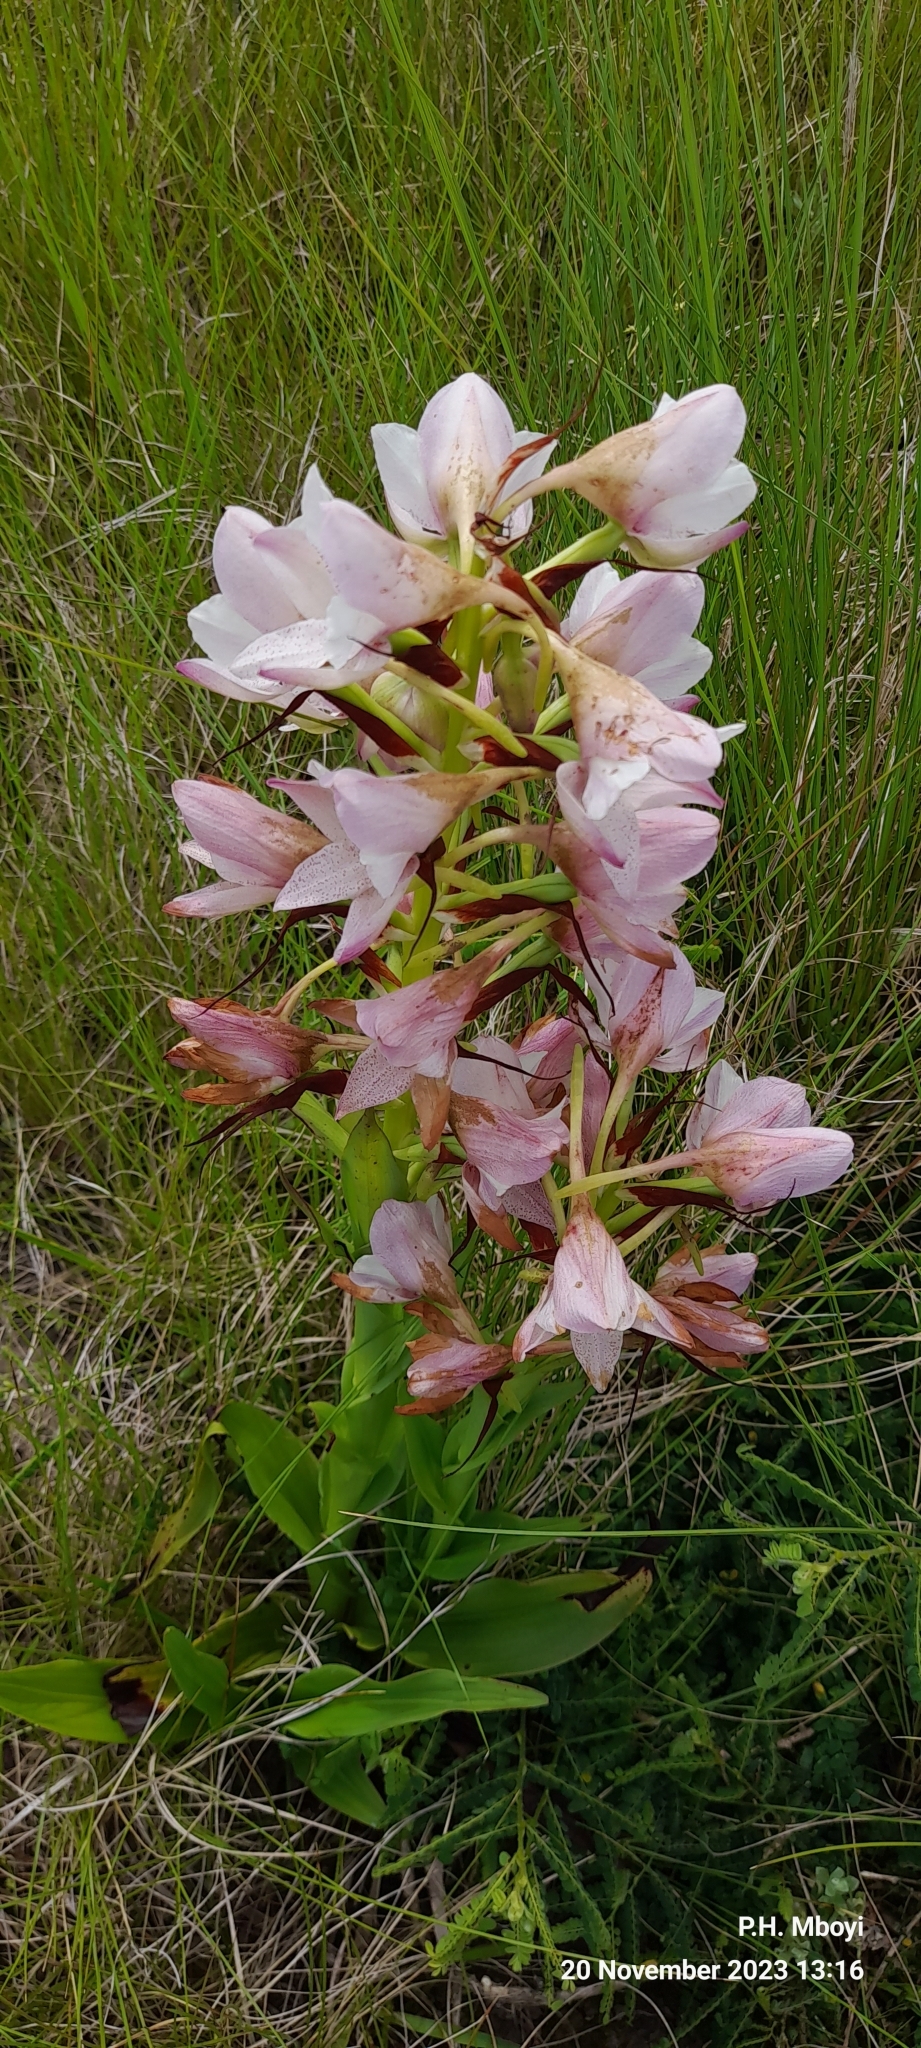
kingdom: Plantae
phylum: Tracheophyta
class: Liliopsida
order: Asparagales
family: Orchidaceae
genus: Disa
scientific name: Disa crassicornis
